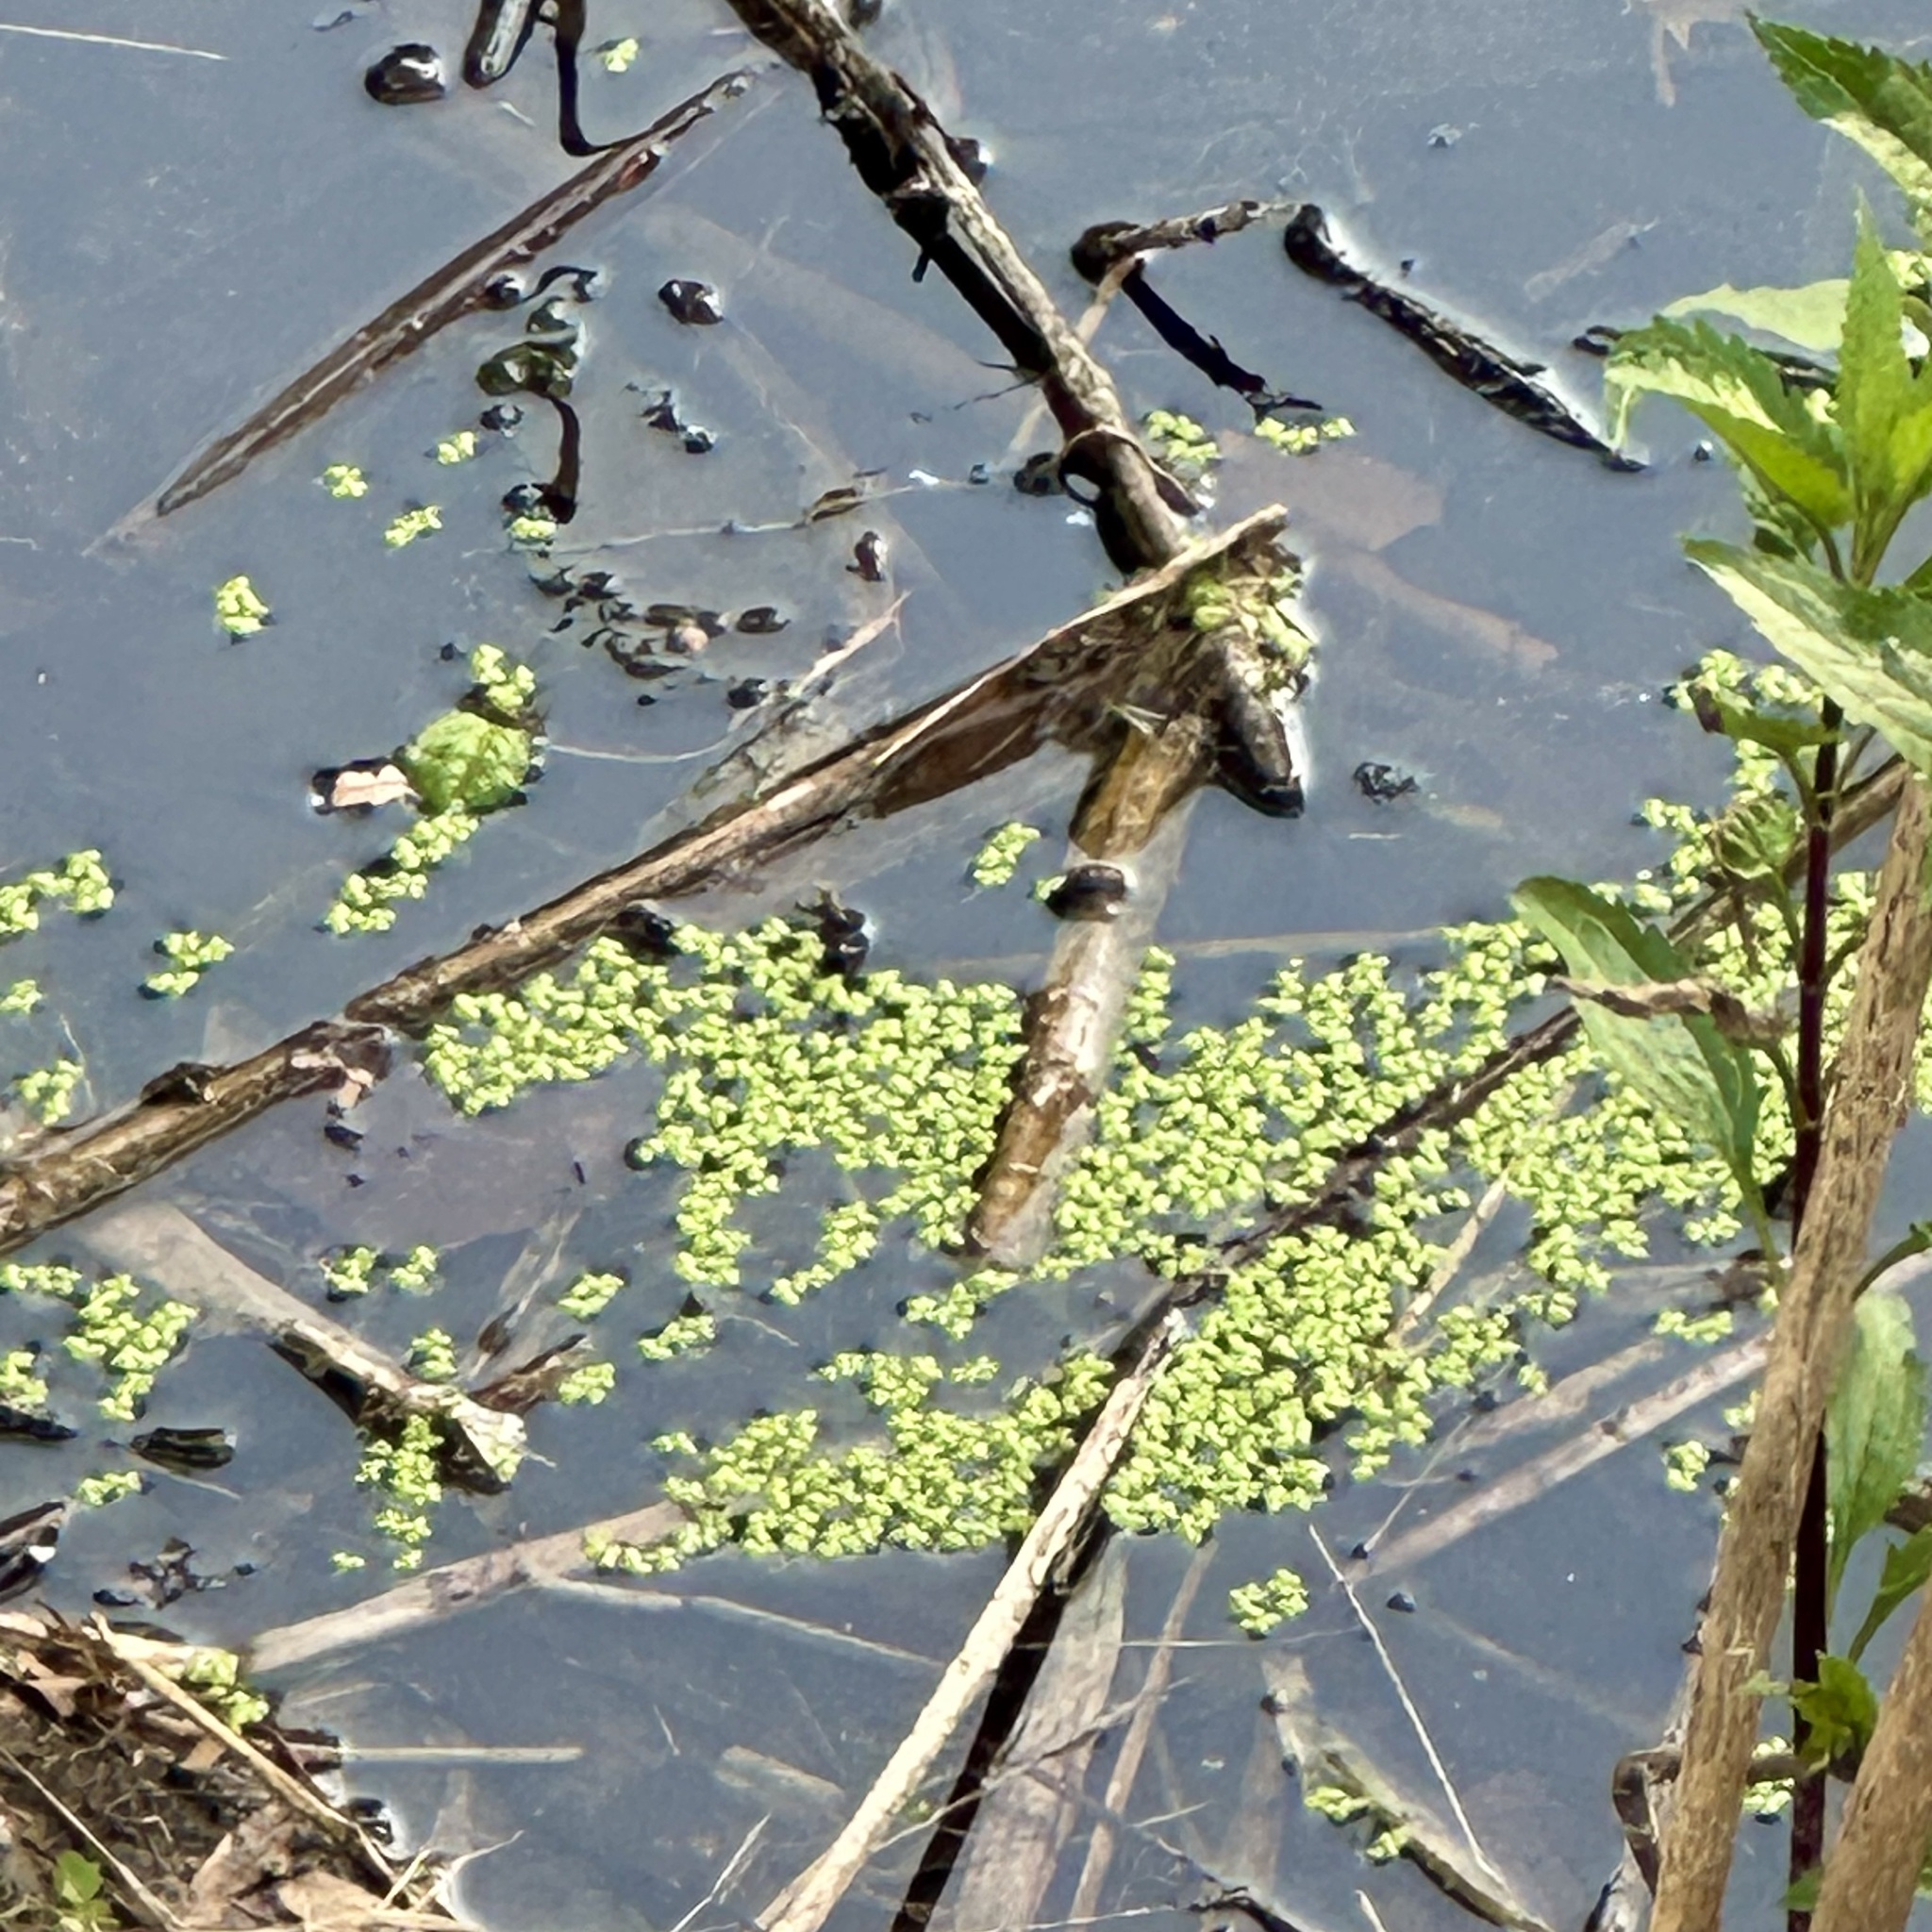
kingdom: Plantae
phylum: Tracheophyta
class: Liliopsida
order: Alismatales
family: Araceae
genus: Lemna
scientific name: Lemna minor
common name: Common duckweed
